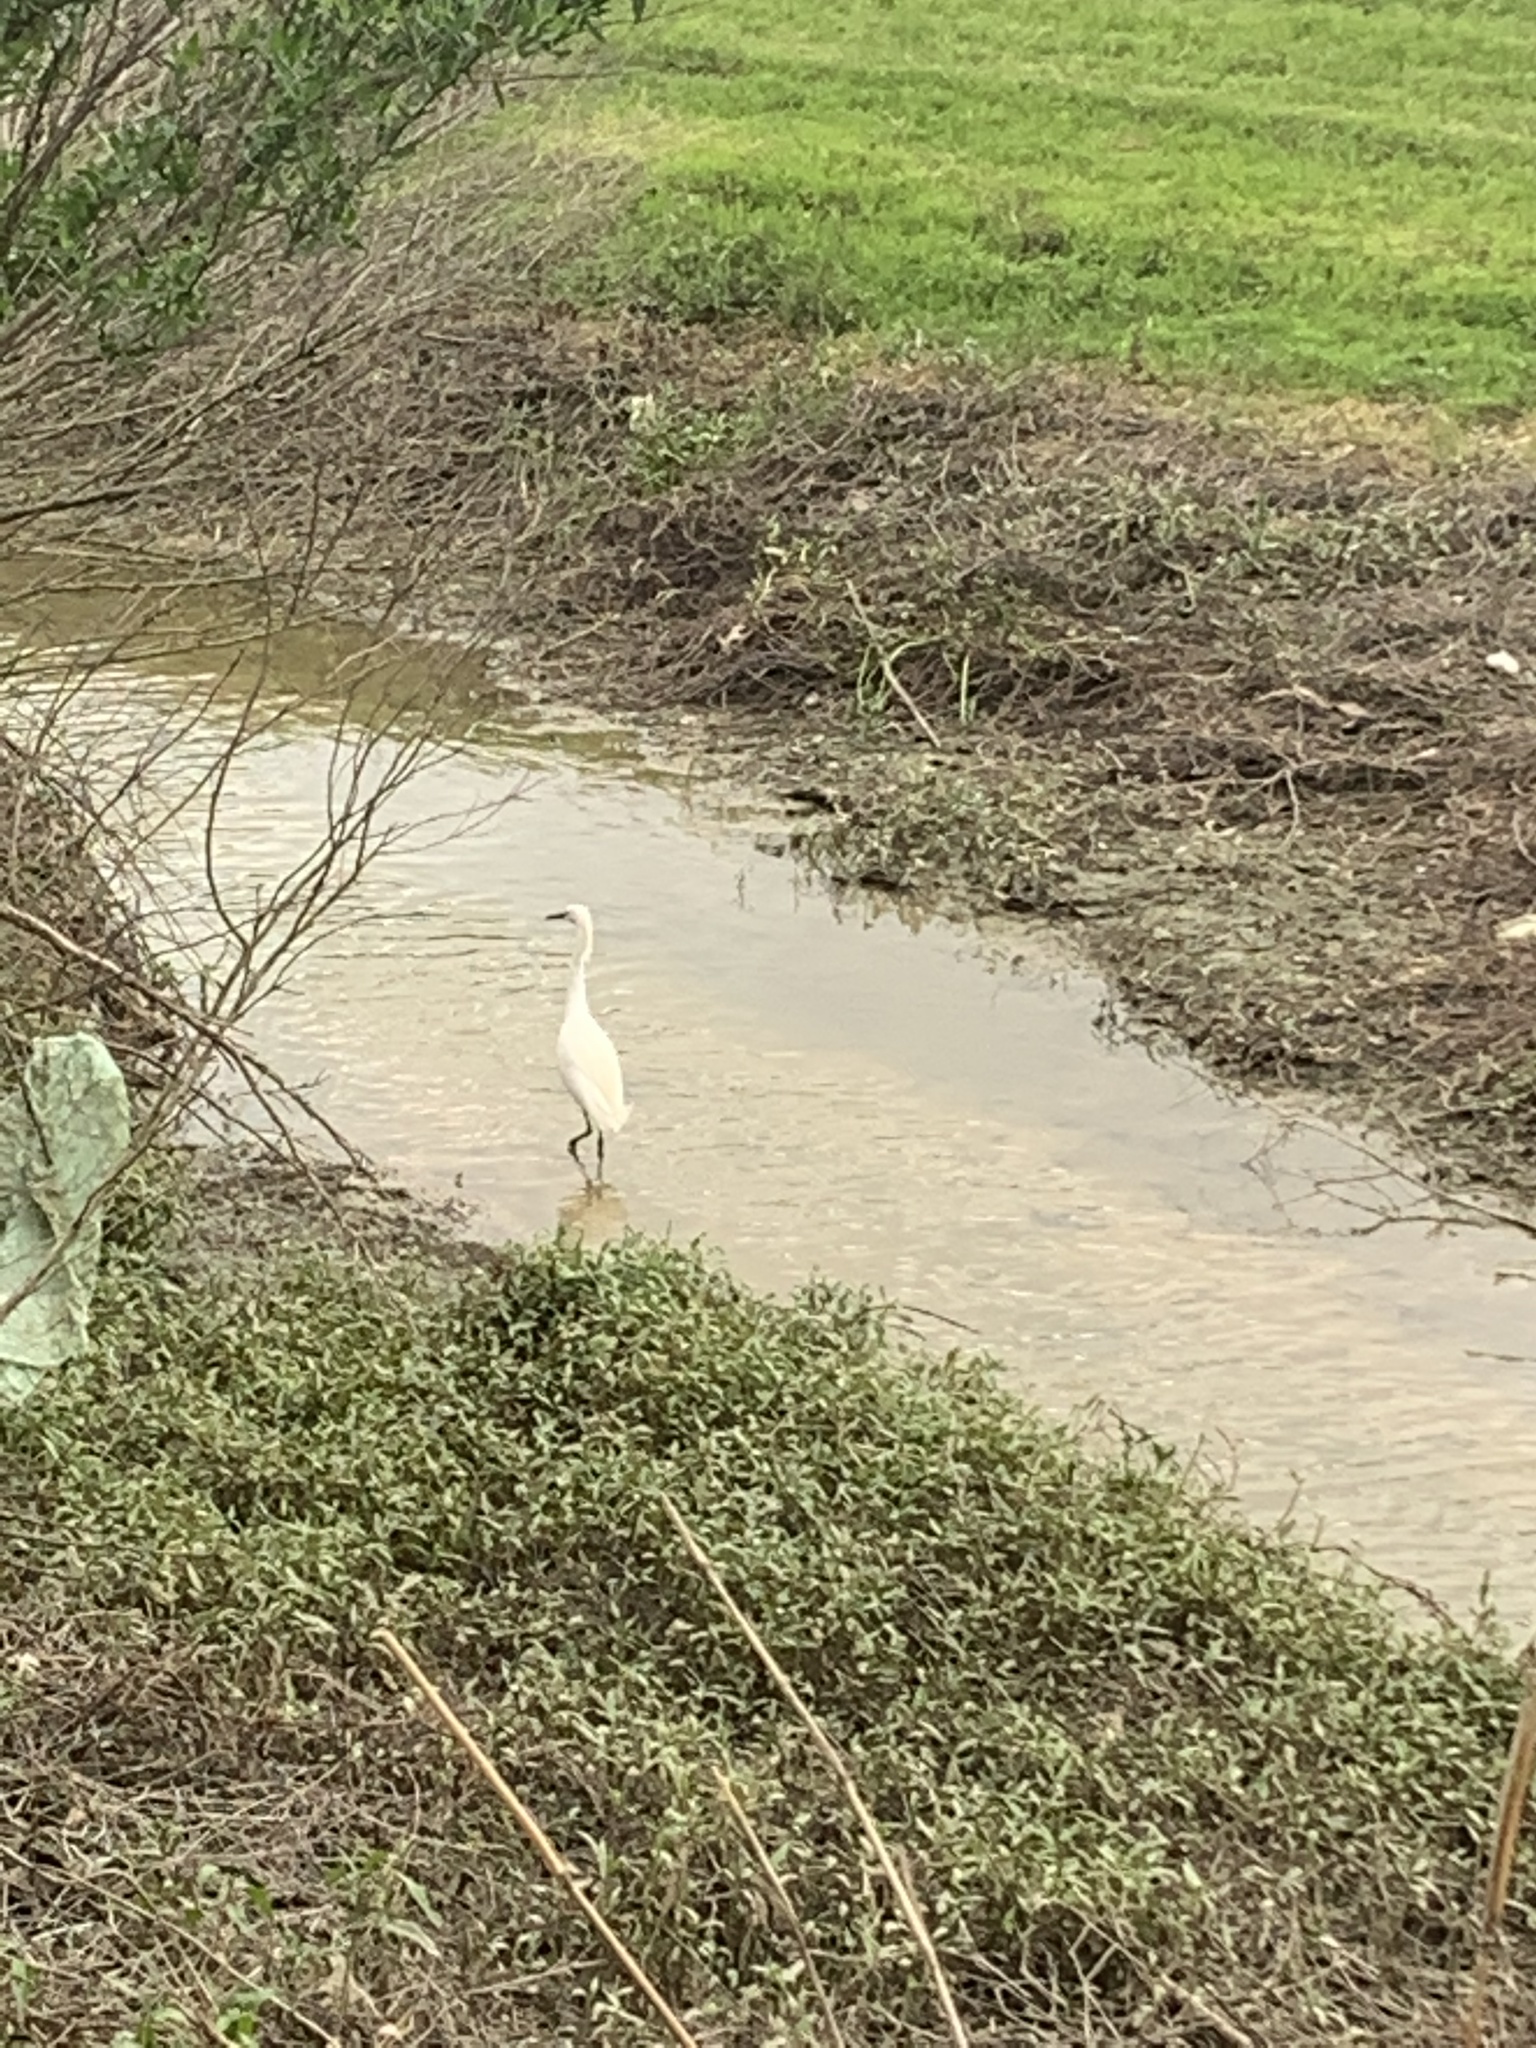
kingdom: Animalia
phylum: Chordata
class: Aves
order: Pelecaniformes
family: Ardeidae
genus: Egretta
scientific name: Egretta thula
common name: Snowy egret
